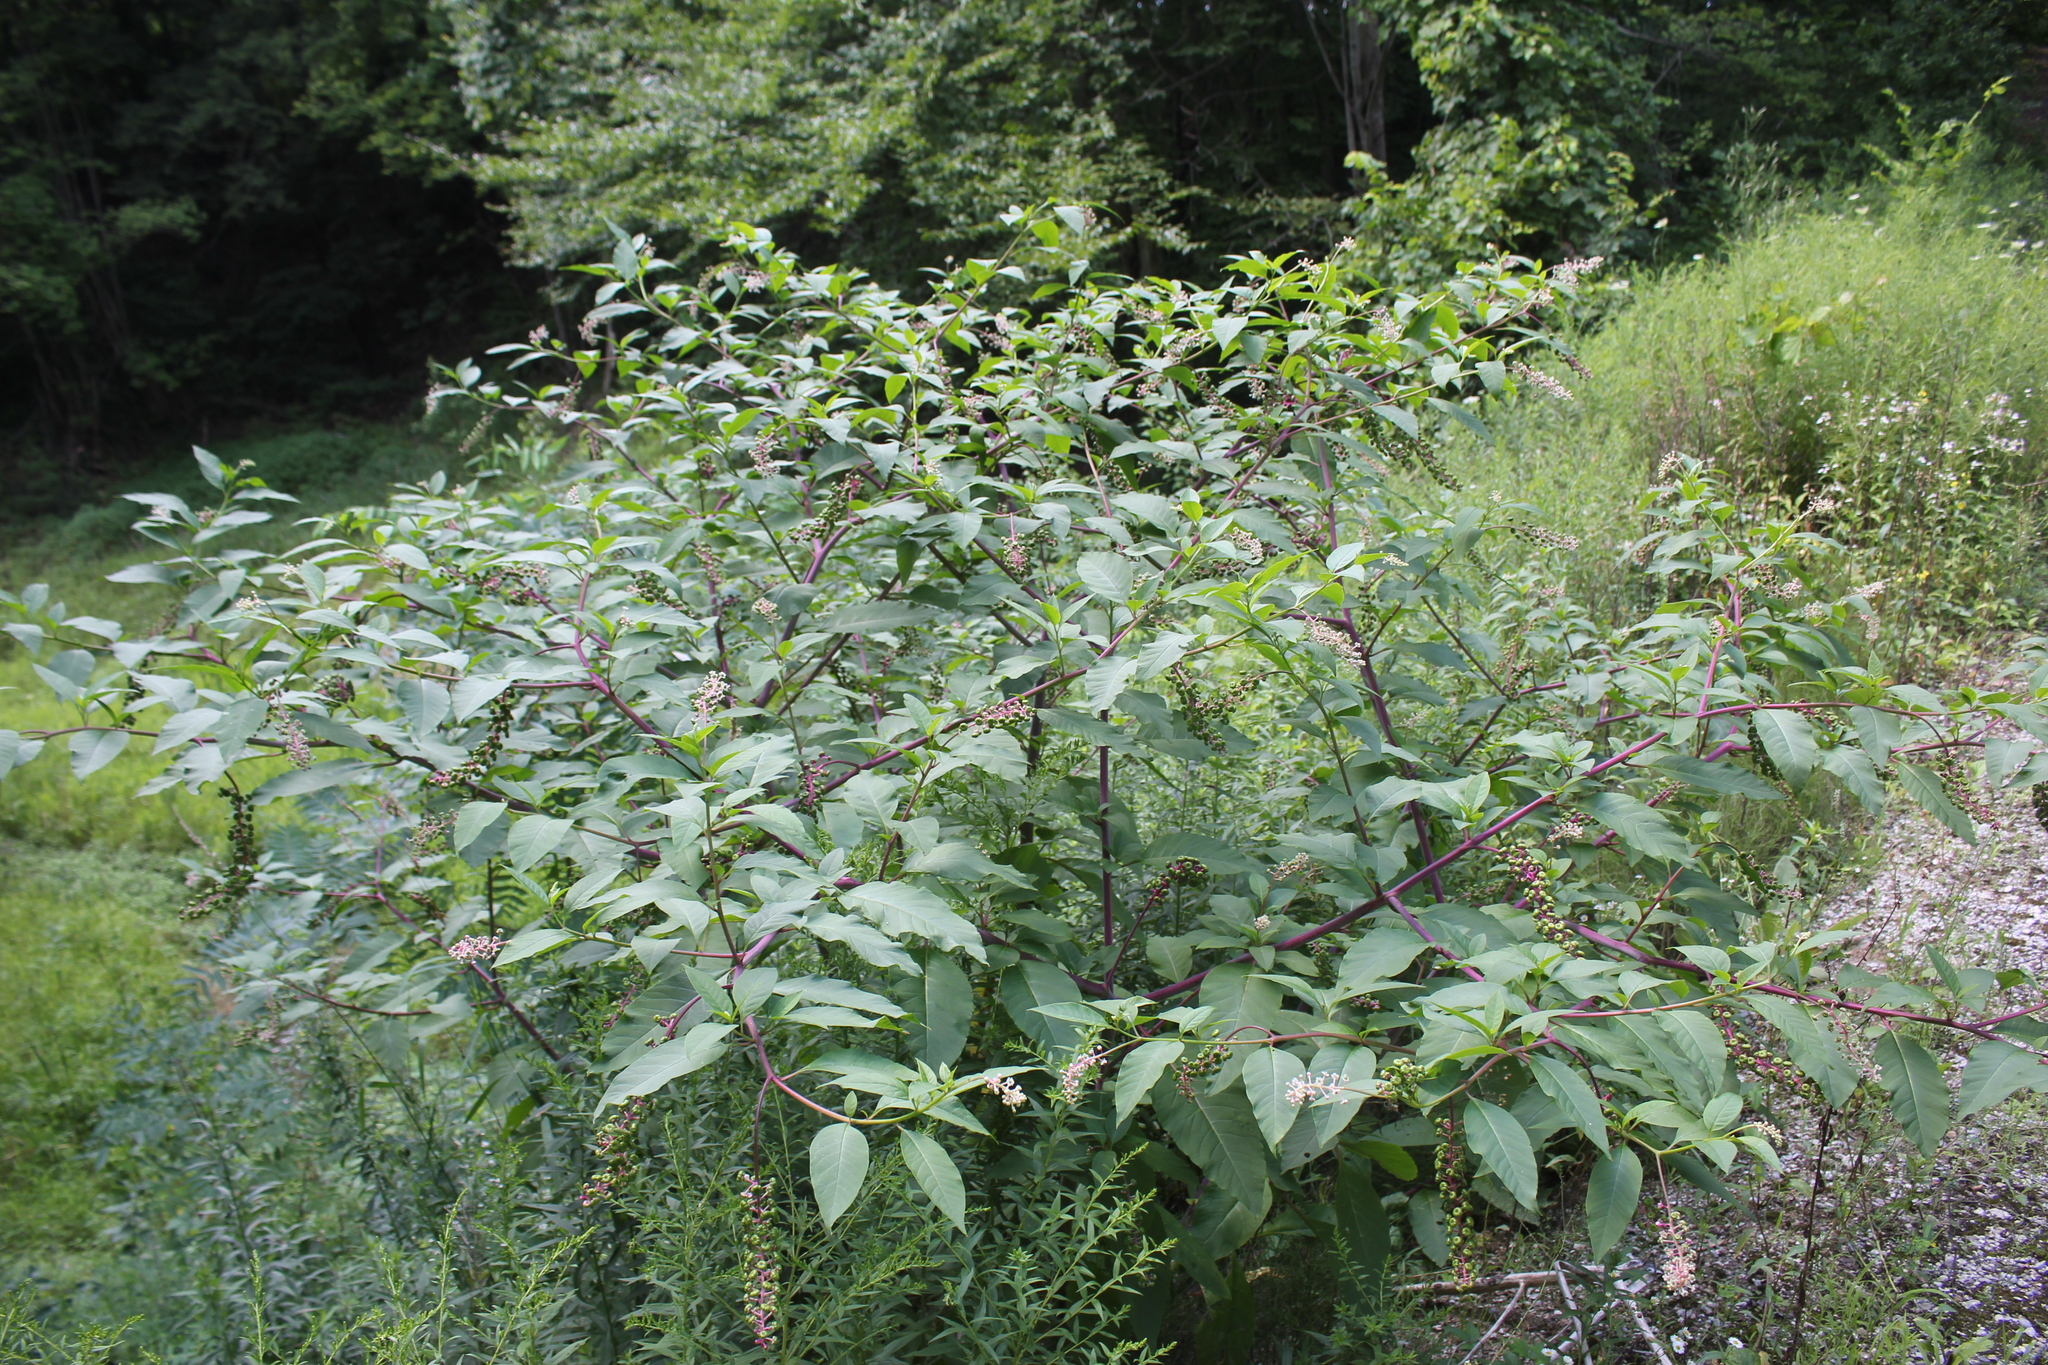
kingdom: Plantae
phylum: Tracheophyta
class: Magnoliopsida
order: Caryophyllales
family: Phytolaccaceae
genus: Phytolacca
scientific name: Phytolacca americana
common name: American pokeweed
